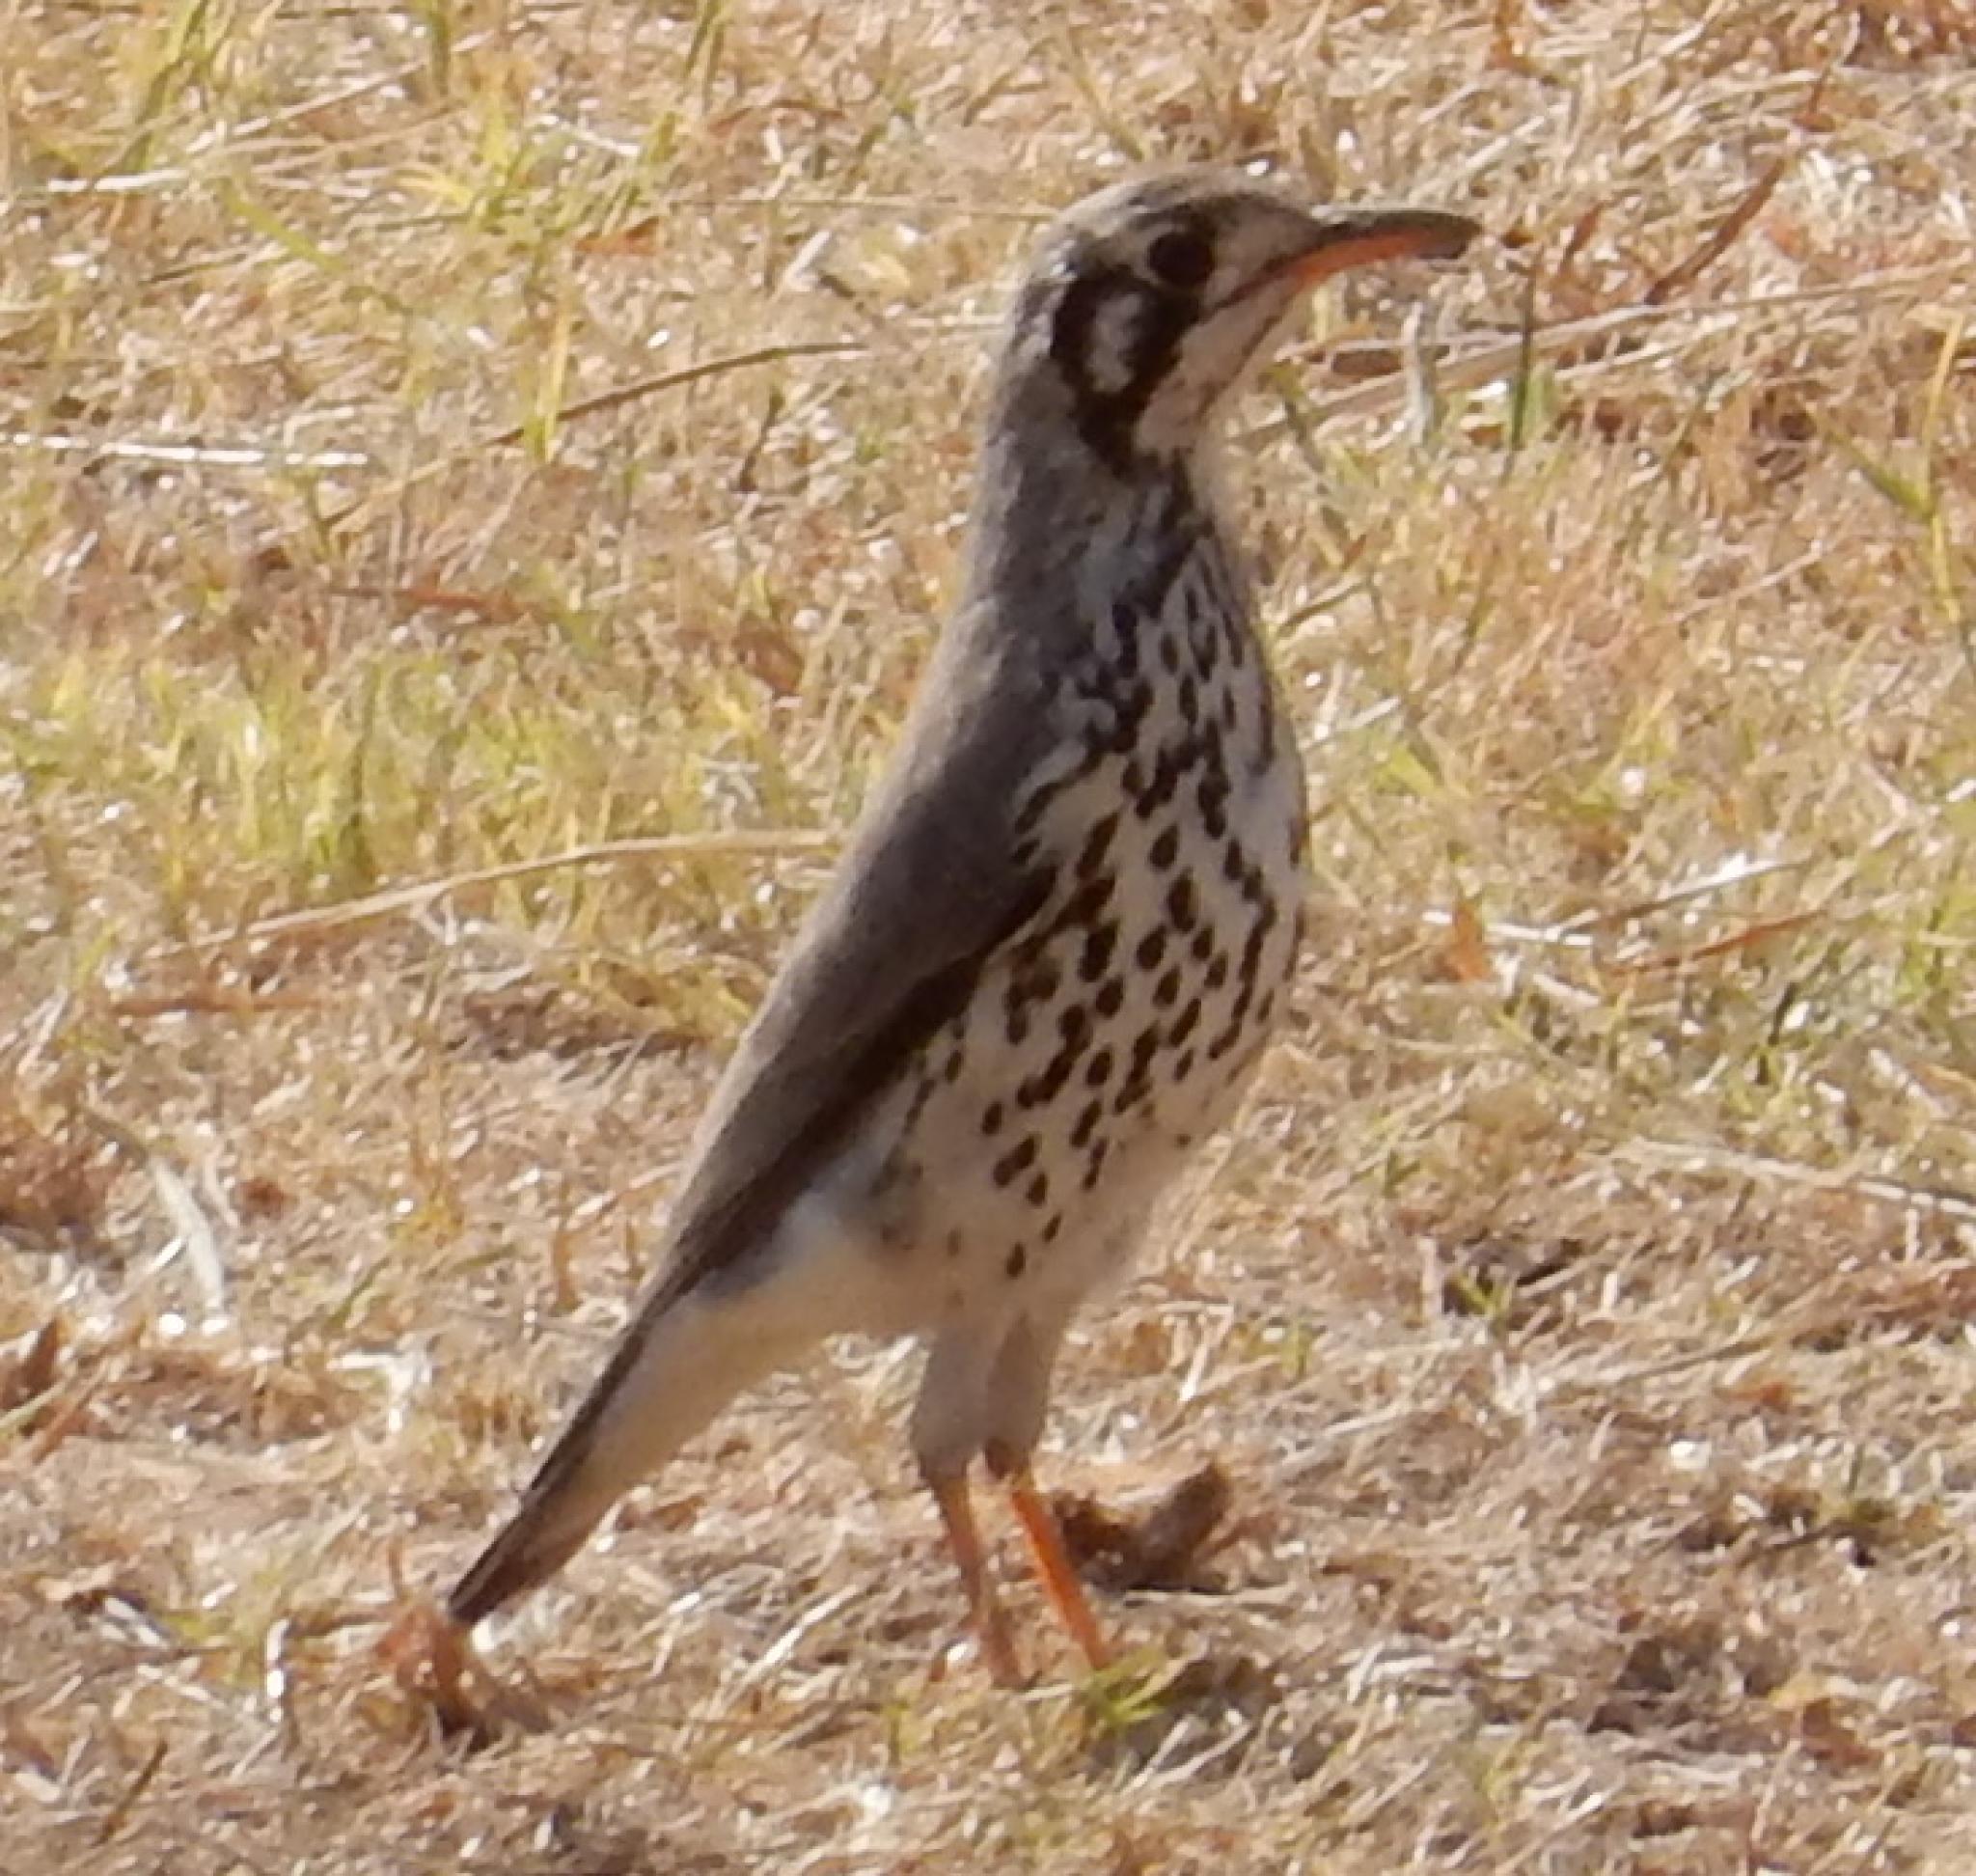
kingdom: Animalia
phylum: Chordata
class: Aves
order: Passeriformes
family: Turdidae
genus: Psophocichla
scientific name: Psophocichla litsitsirupa
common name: Groundscraper thrush
